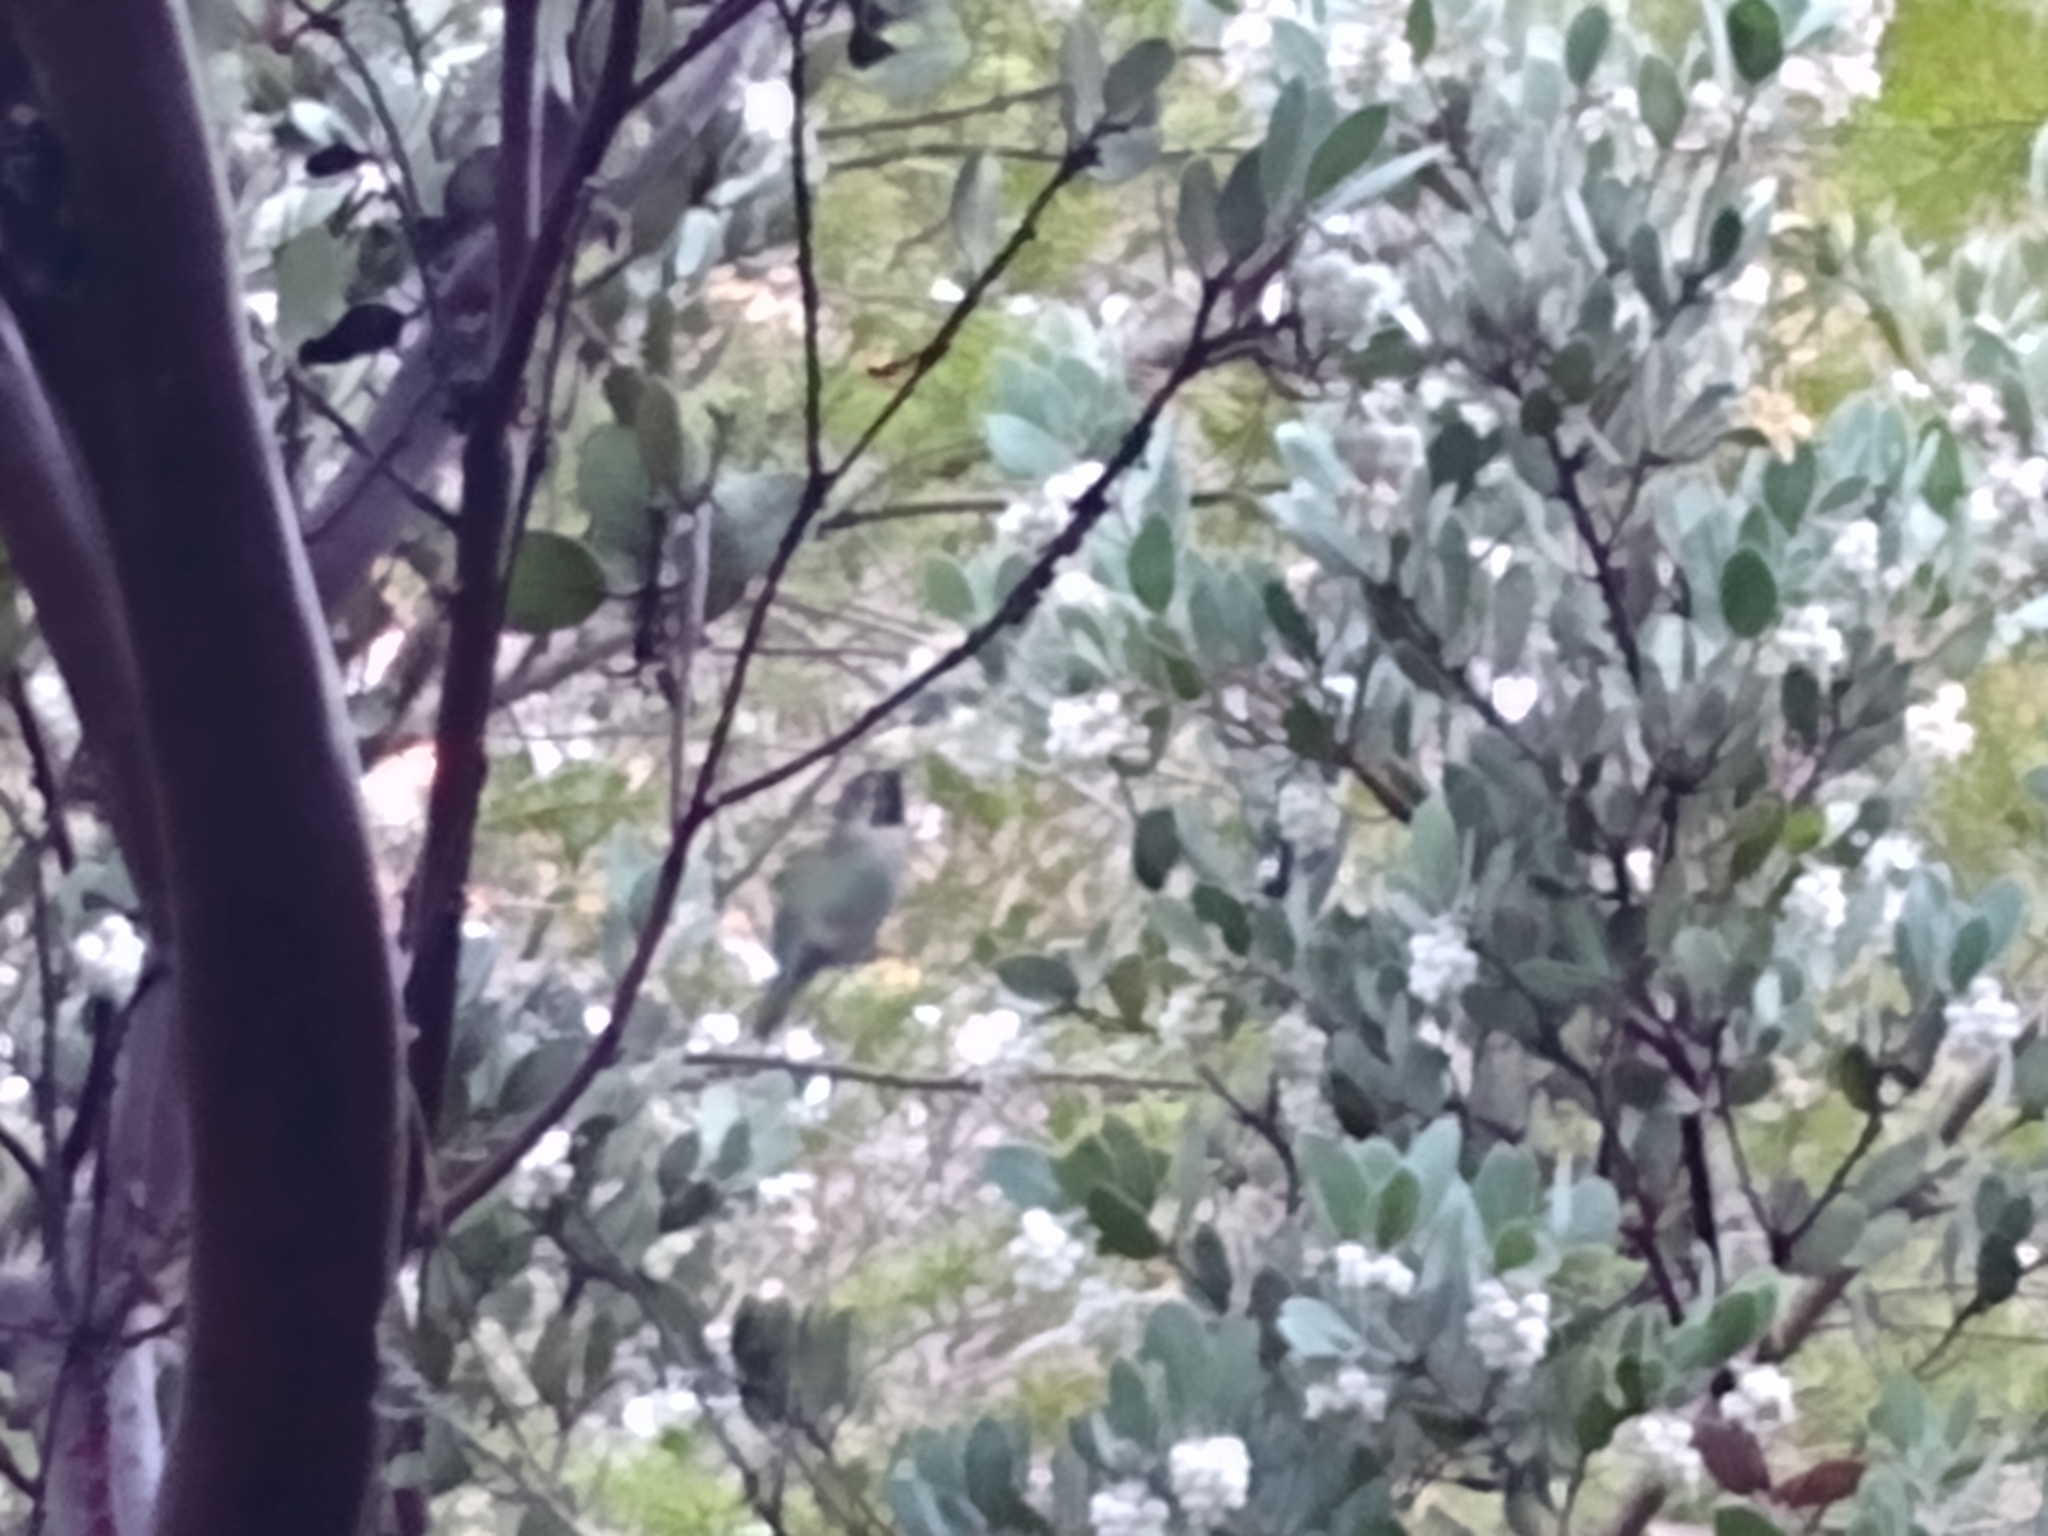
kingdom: Animalia
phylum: Chordata
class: Aves
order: Apodiformes
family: Trochilidae
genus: Calypte
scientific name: Calypte anna
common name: Anna's hummingbird
